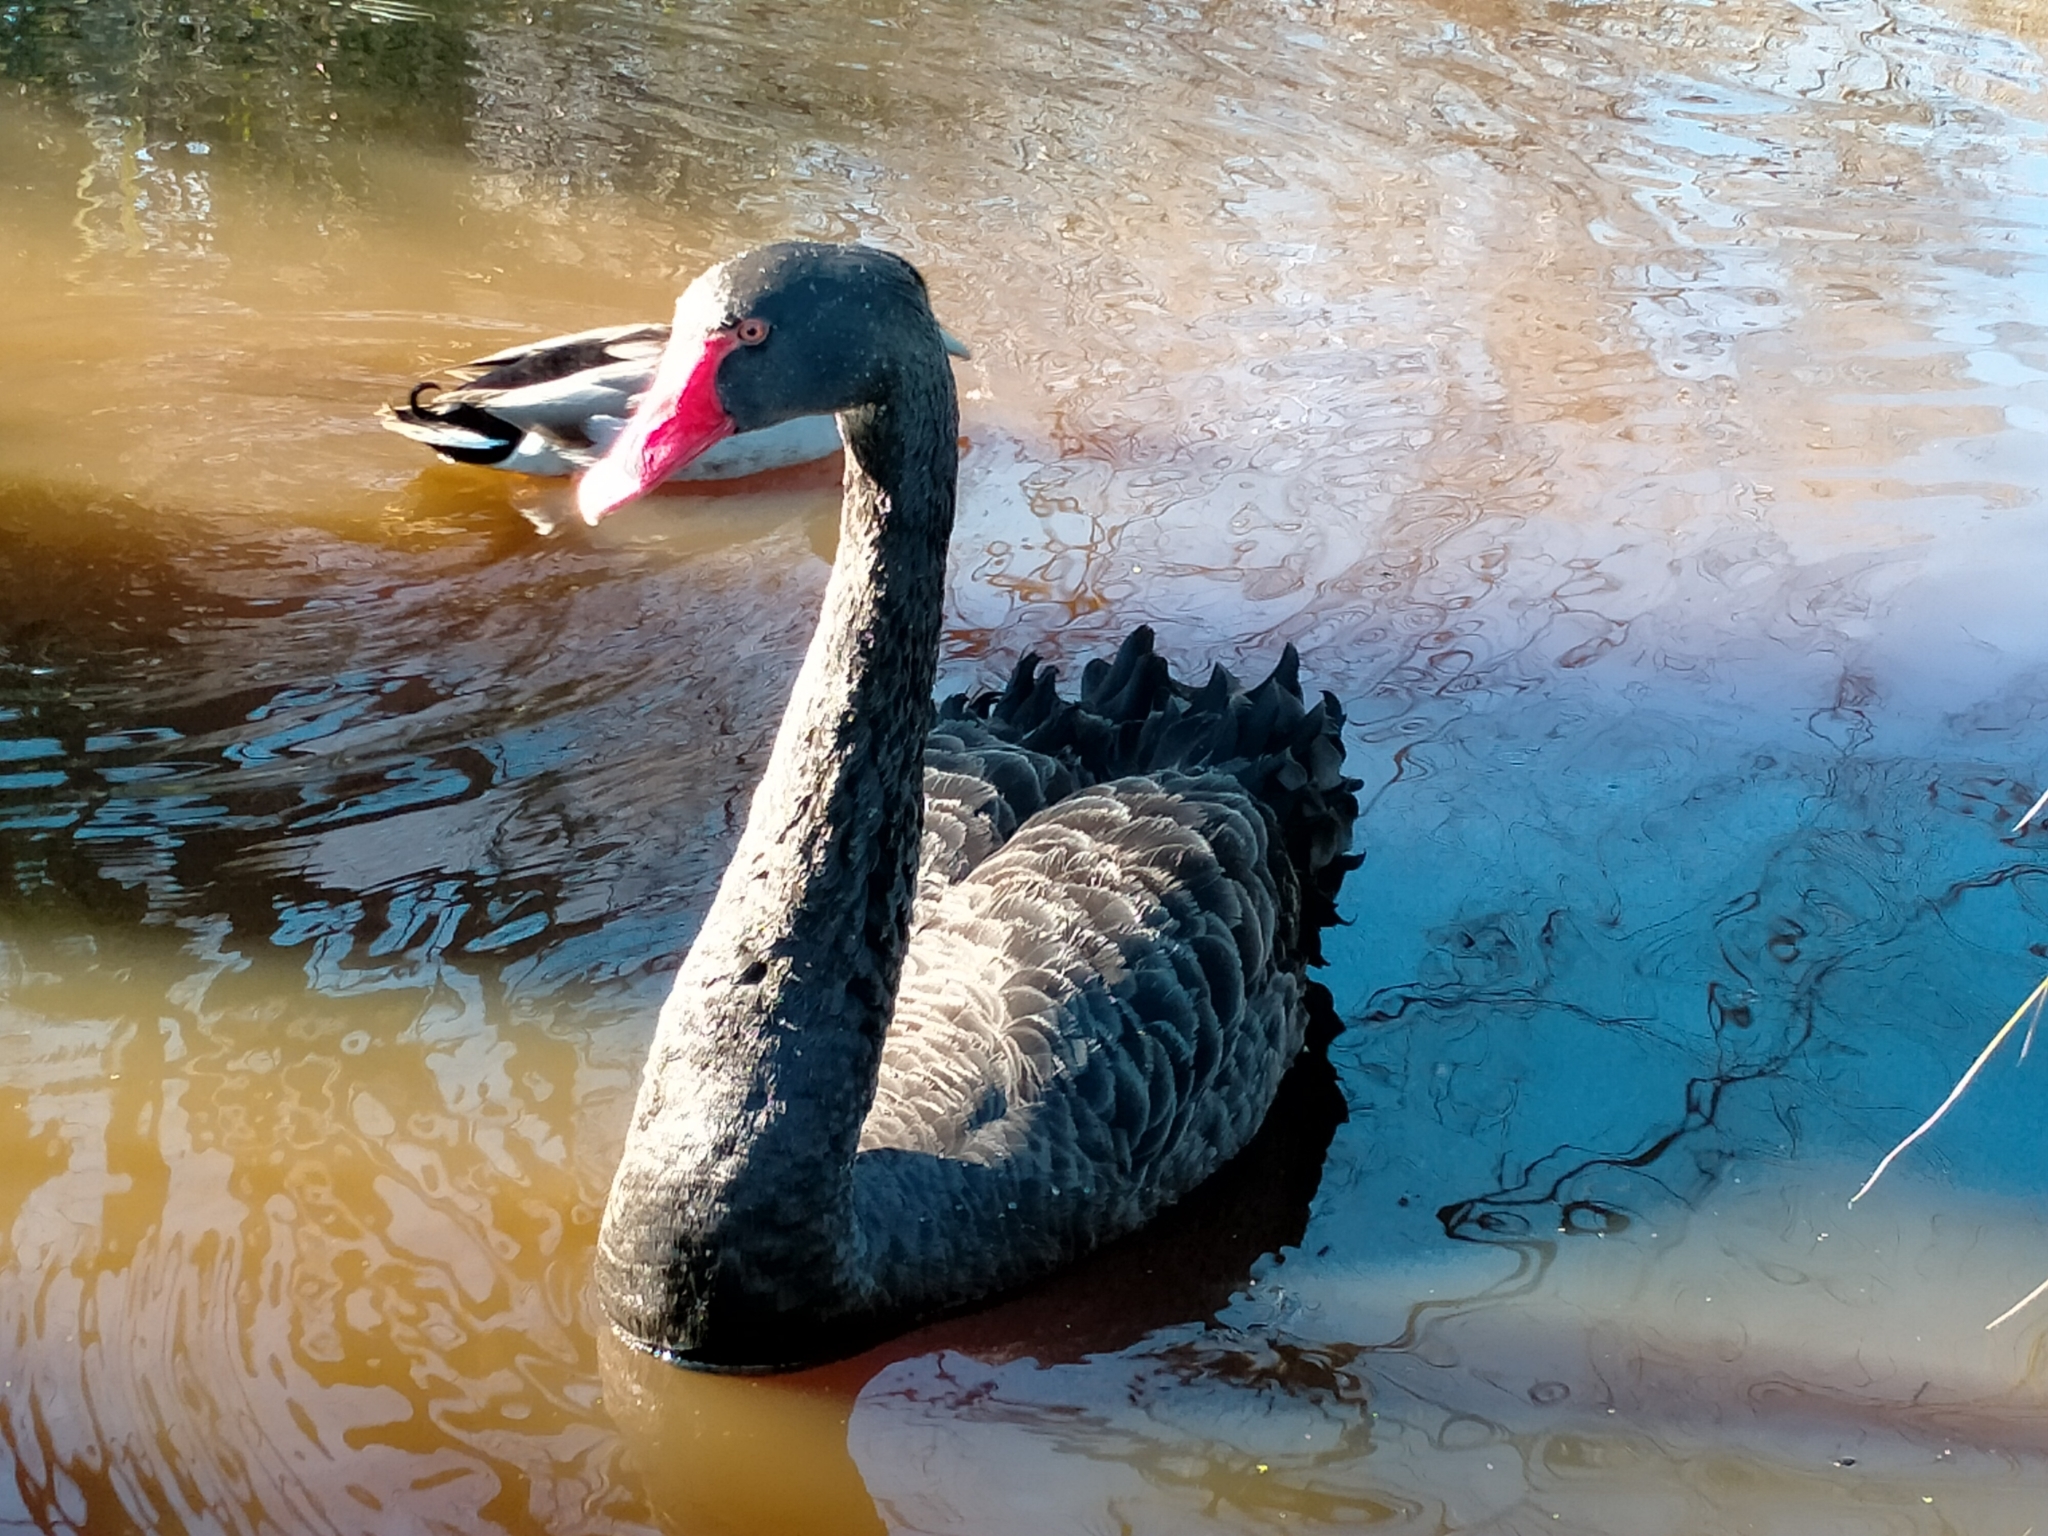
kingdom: Animalia
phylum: Chordata
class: Aves
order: Anseriformes
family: Anatidae
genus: Cygnus
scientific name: Cygnus atratus
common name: Black swan
